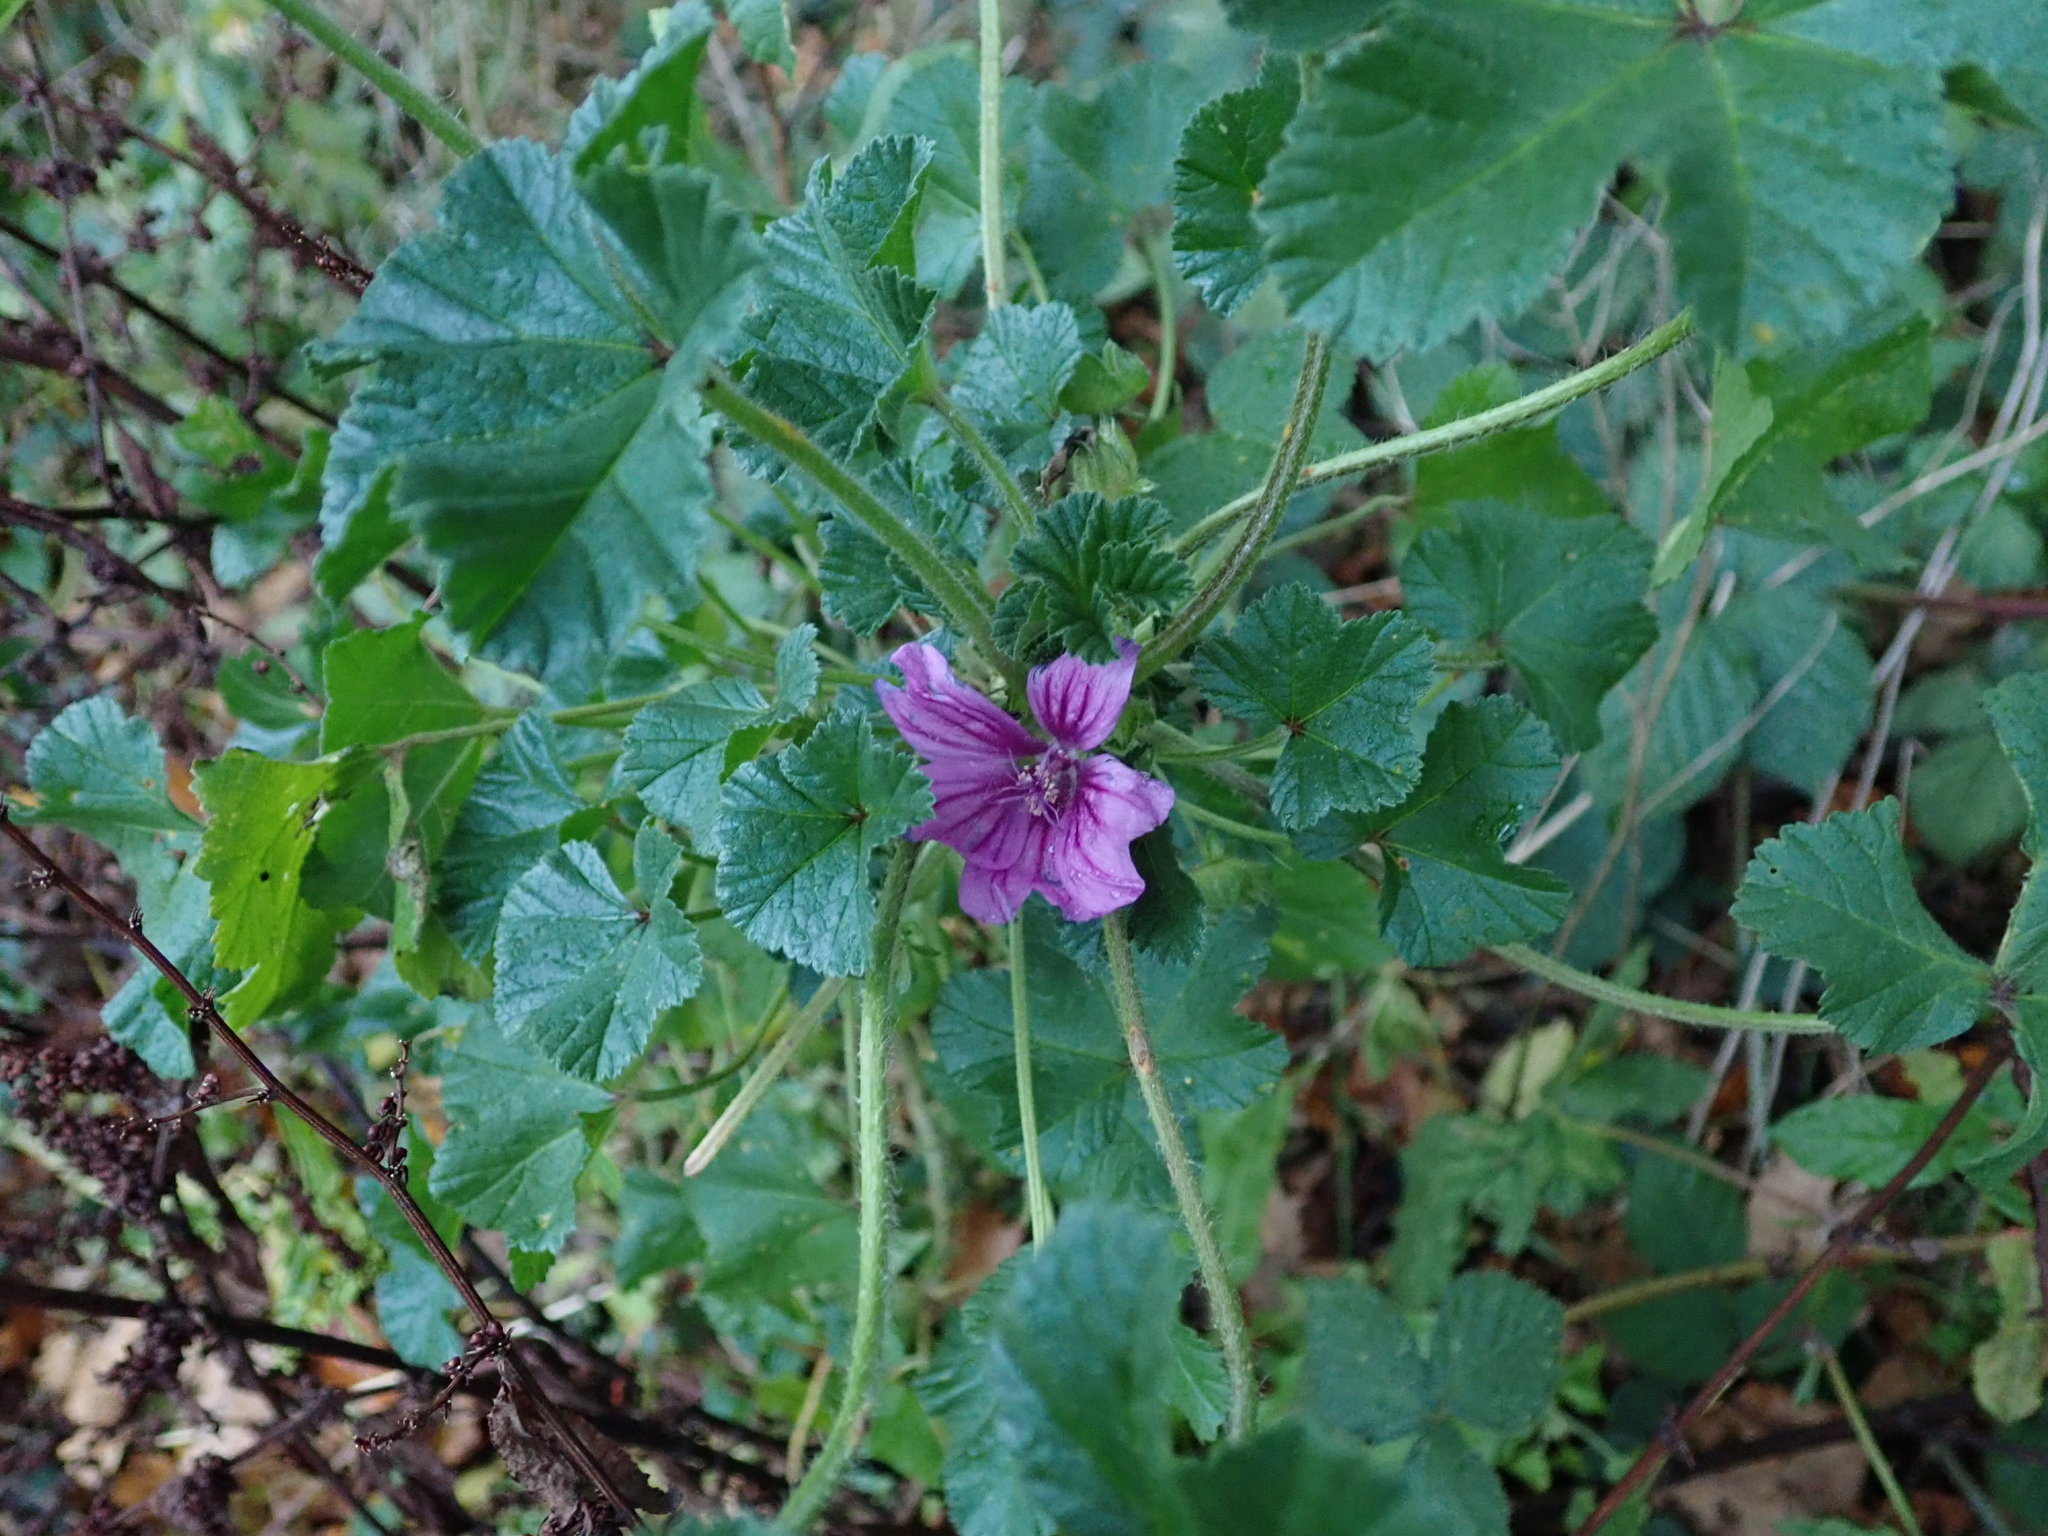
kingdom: Plantae
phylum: Tracheophyta
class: Magnoliopsida
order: Malvales
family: Malvaceae
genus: Malva
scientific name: Malva sylvestris
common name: Common mallow
